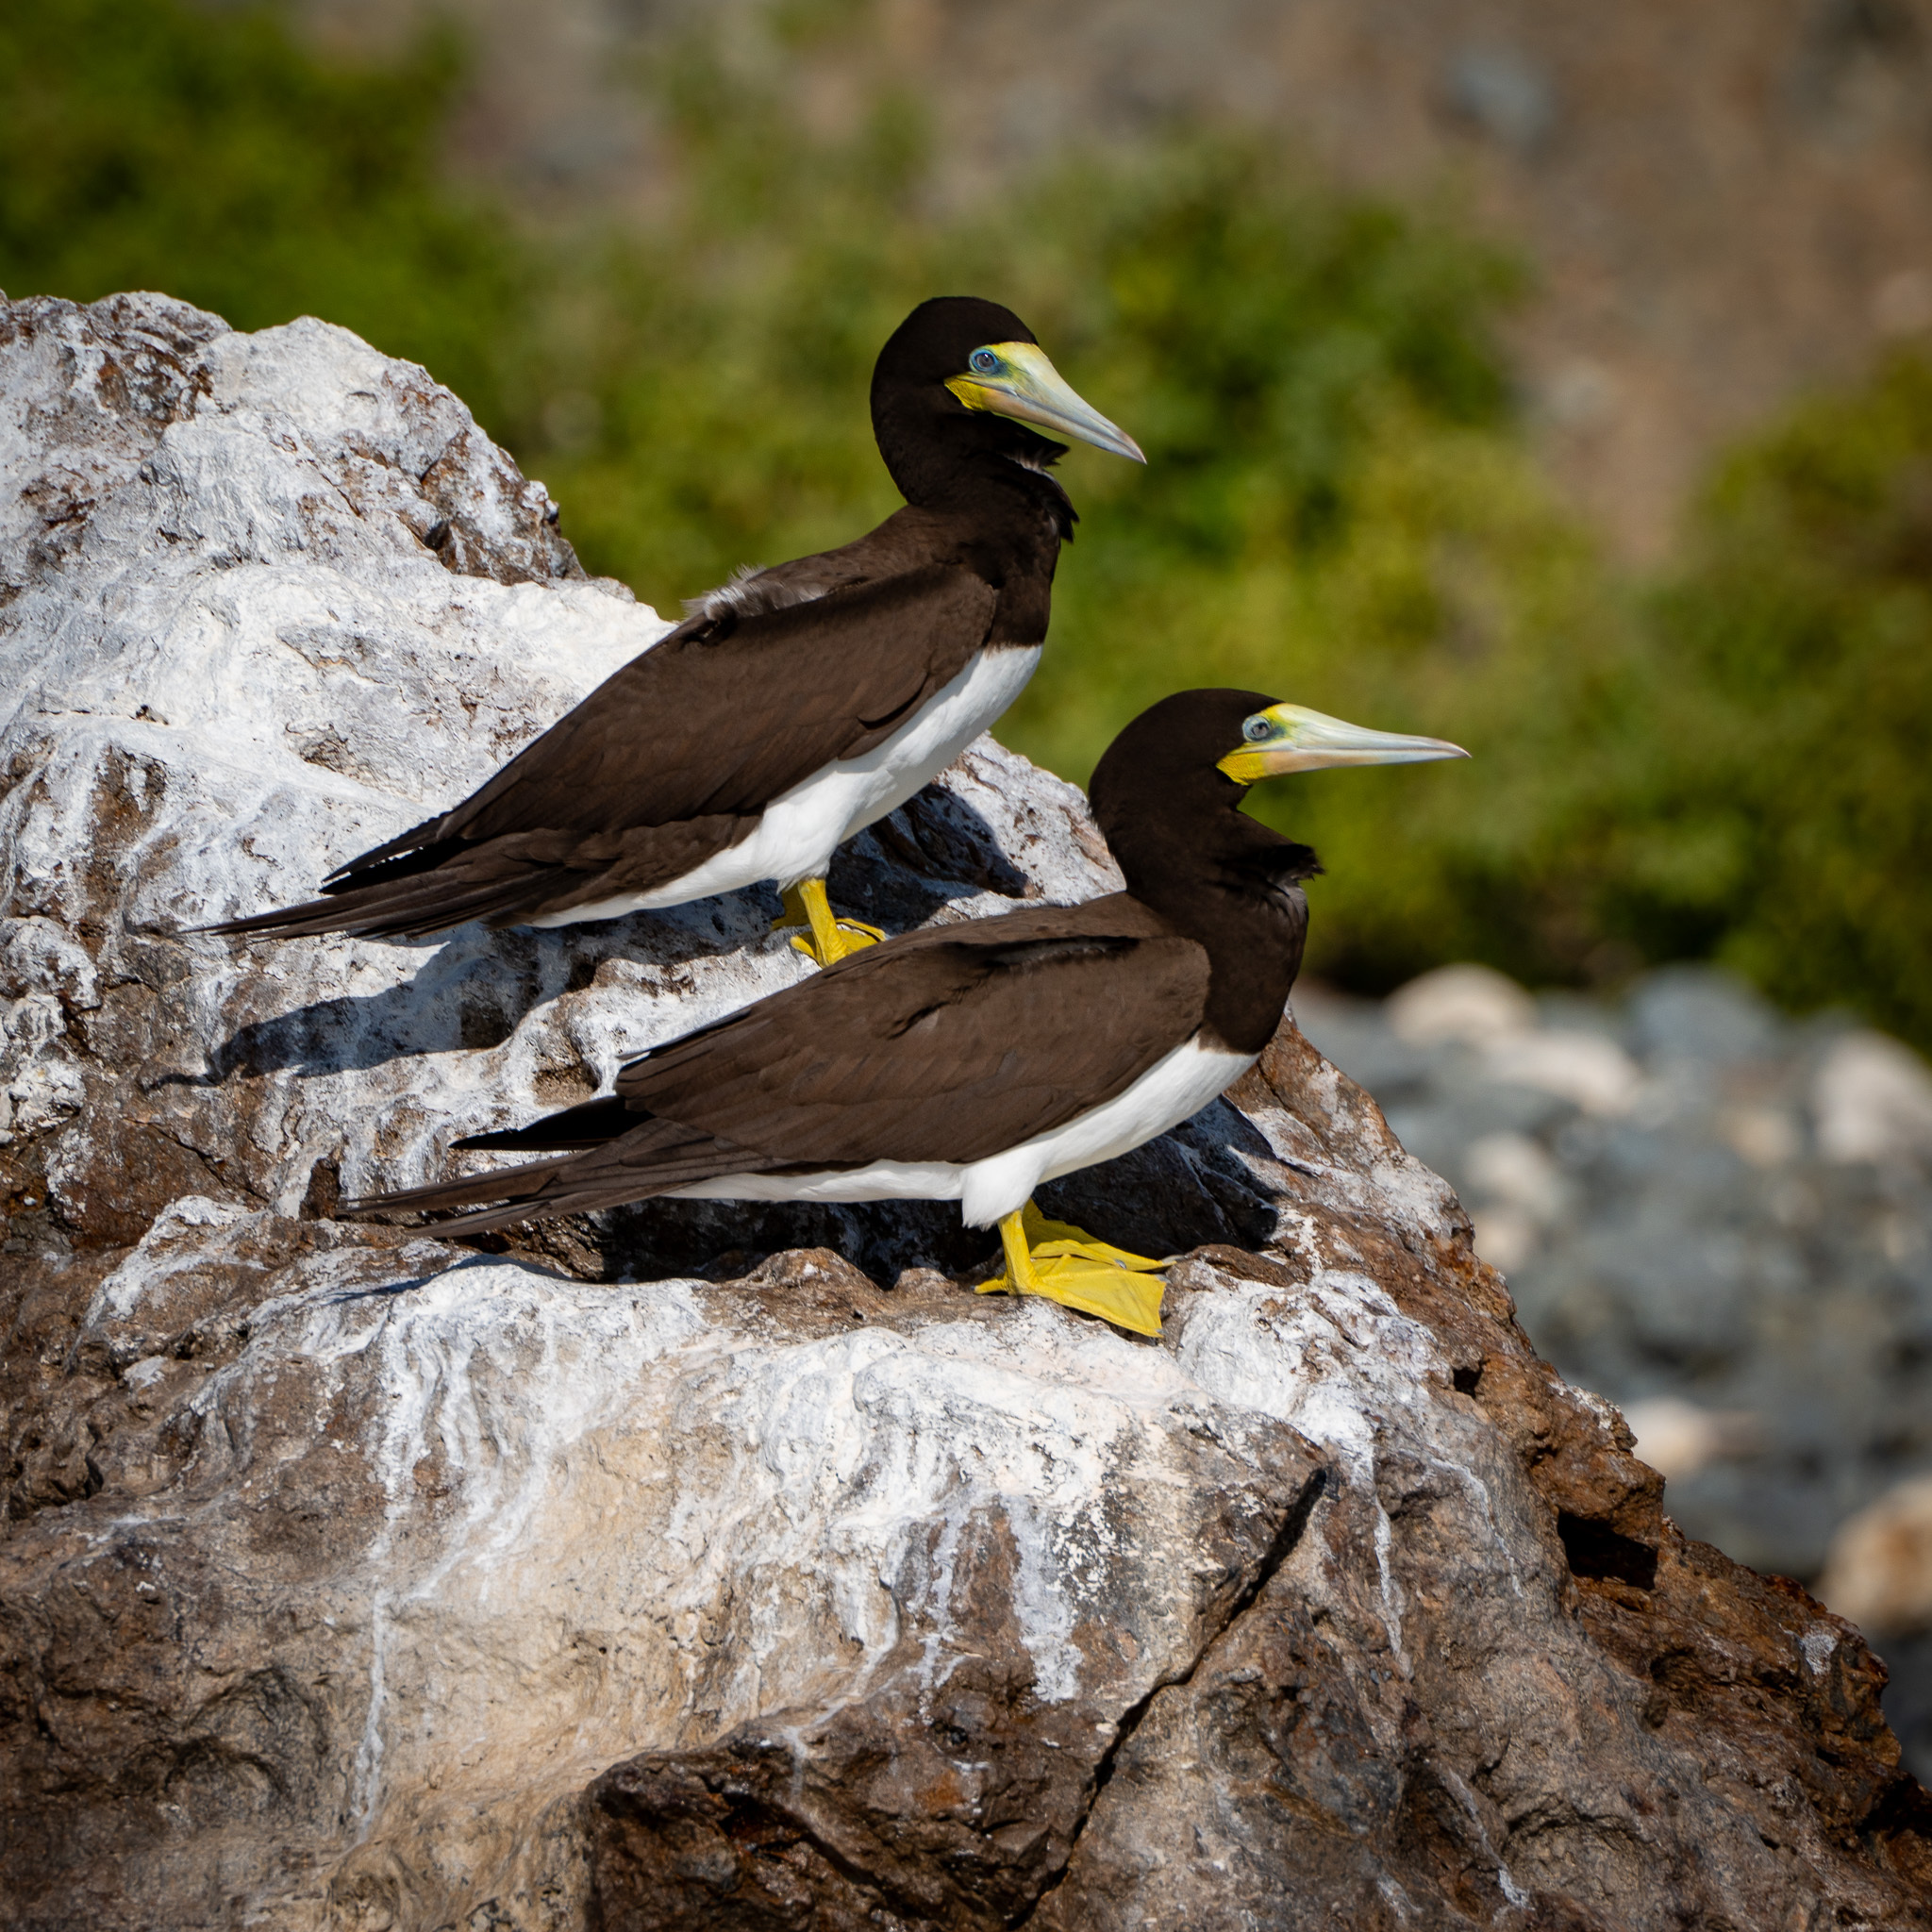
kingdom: Animalia
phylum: Chordata
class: Aves
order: Suliformes
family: Sulidae
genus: Sula
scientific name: Sula leucogaster
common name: Brown booby
